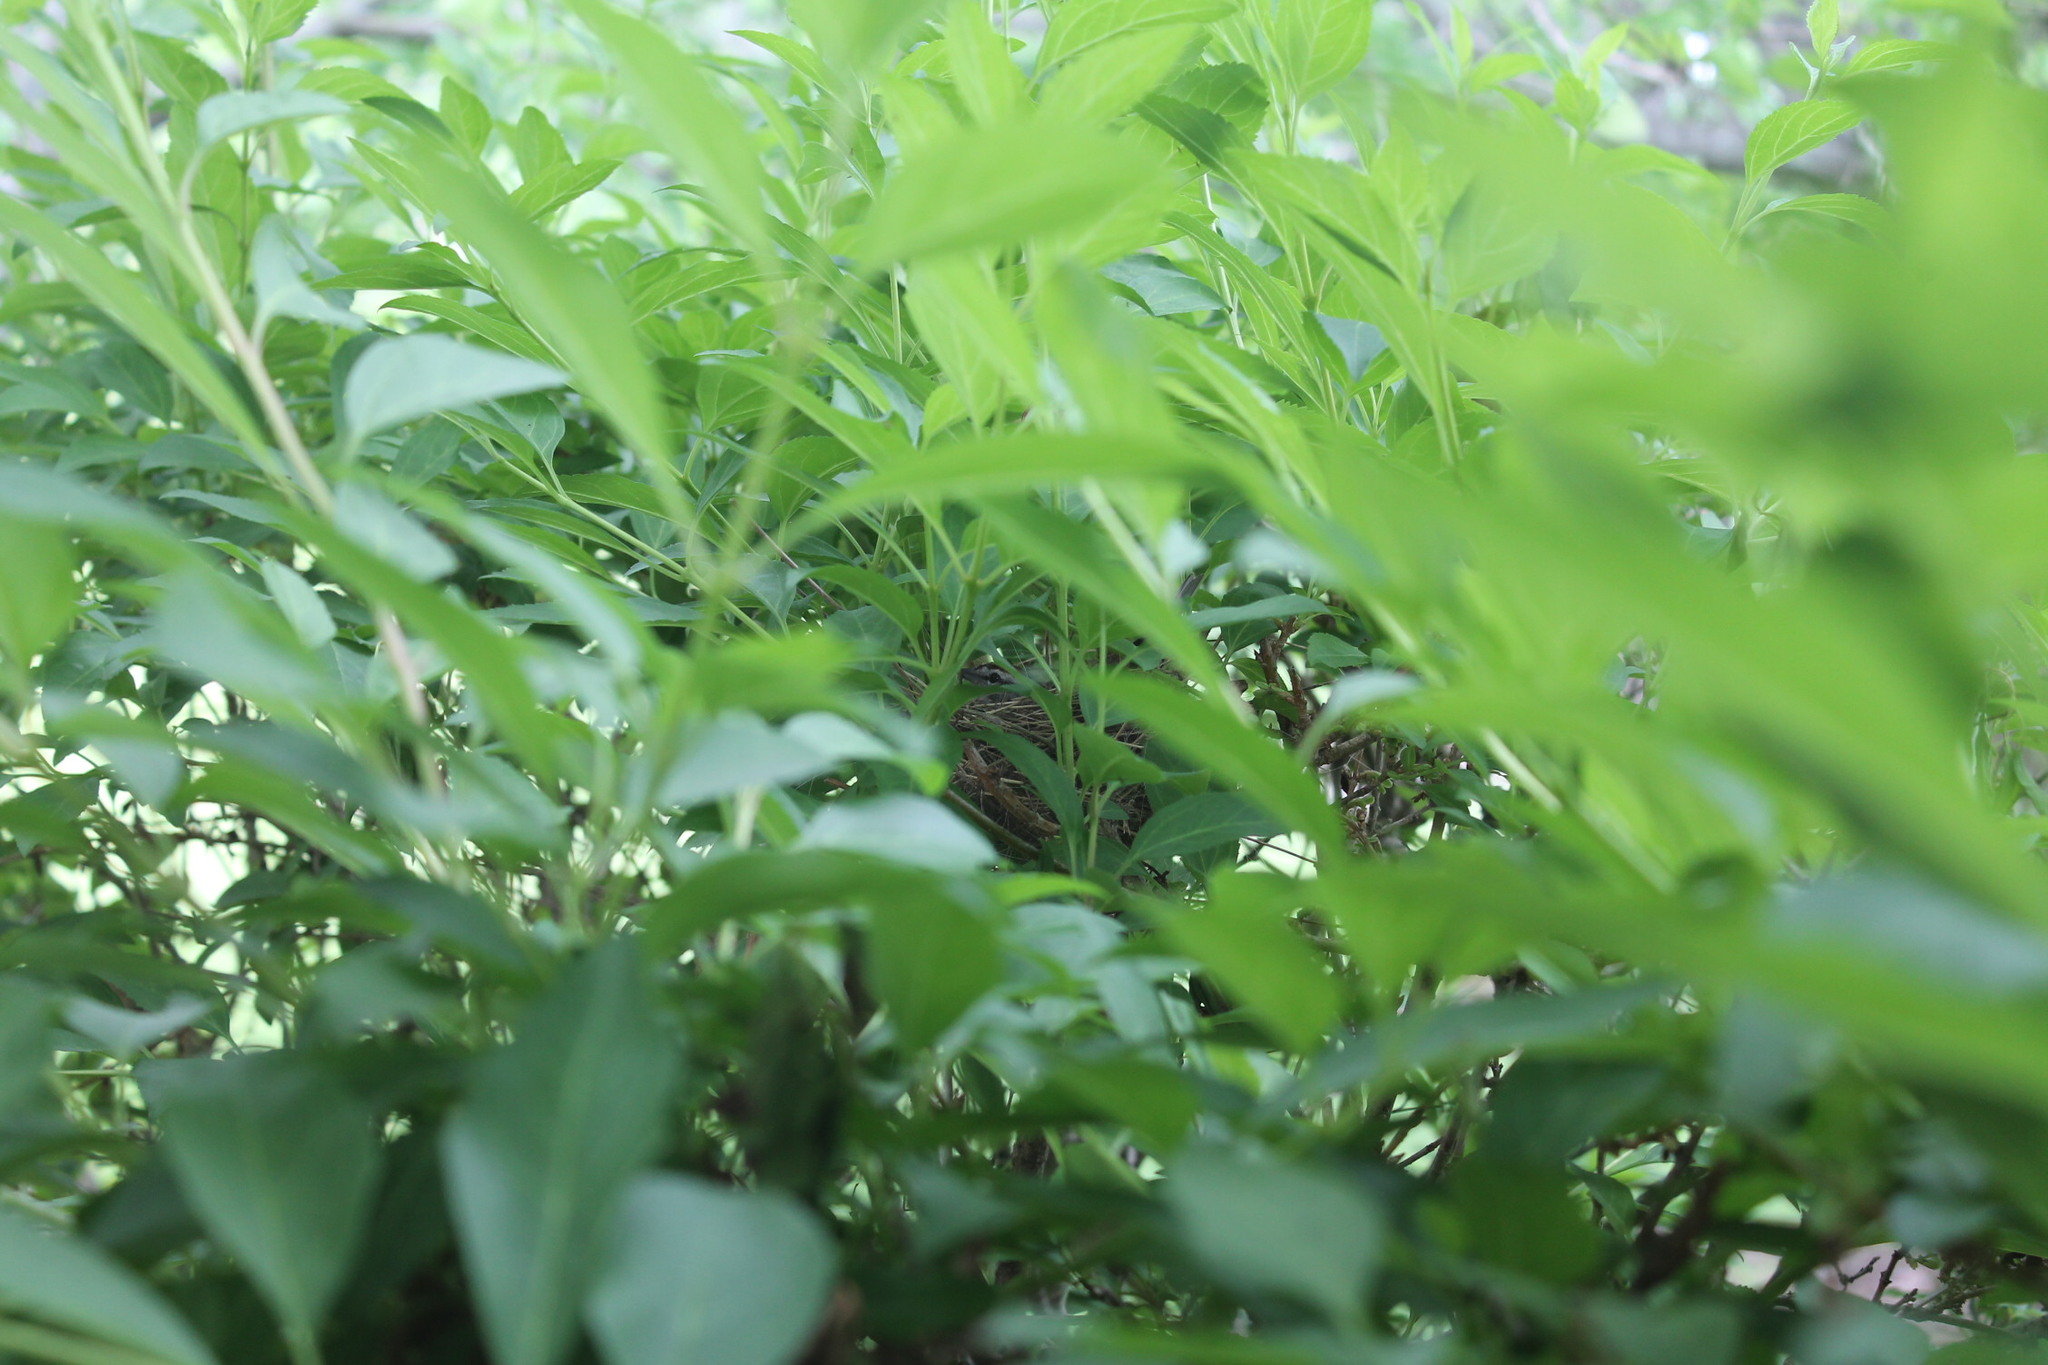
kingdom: Animalia
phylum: Chordata
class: Aves
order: Passeriformes
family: Passerellidae
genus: Spizella
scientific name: Spizella passerina
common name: Chipping sparrow
